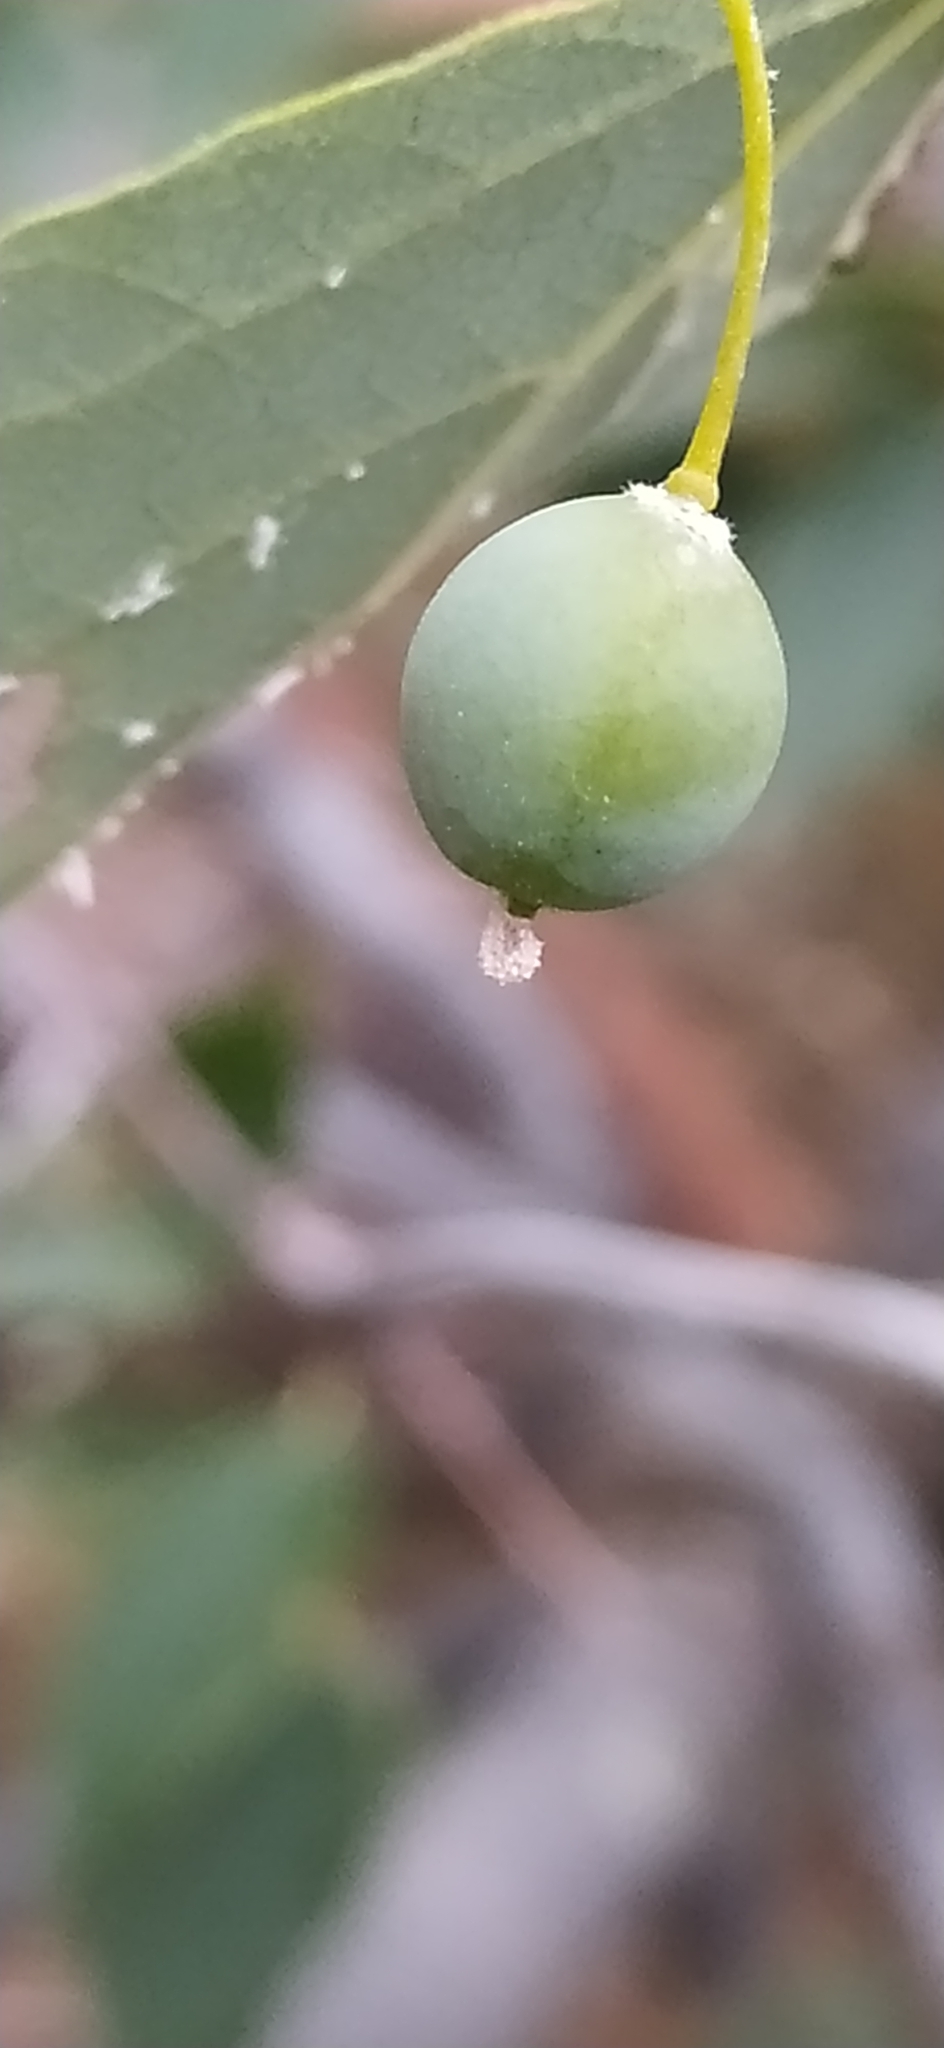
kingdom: Plantae
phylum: Tracheophyta
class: Magnoliopsida
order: Rosales
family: Cannabaceae
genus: Celtis
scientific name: Celtis australis
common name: European hackberry
